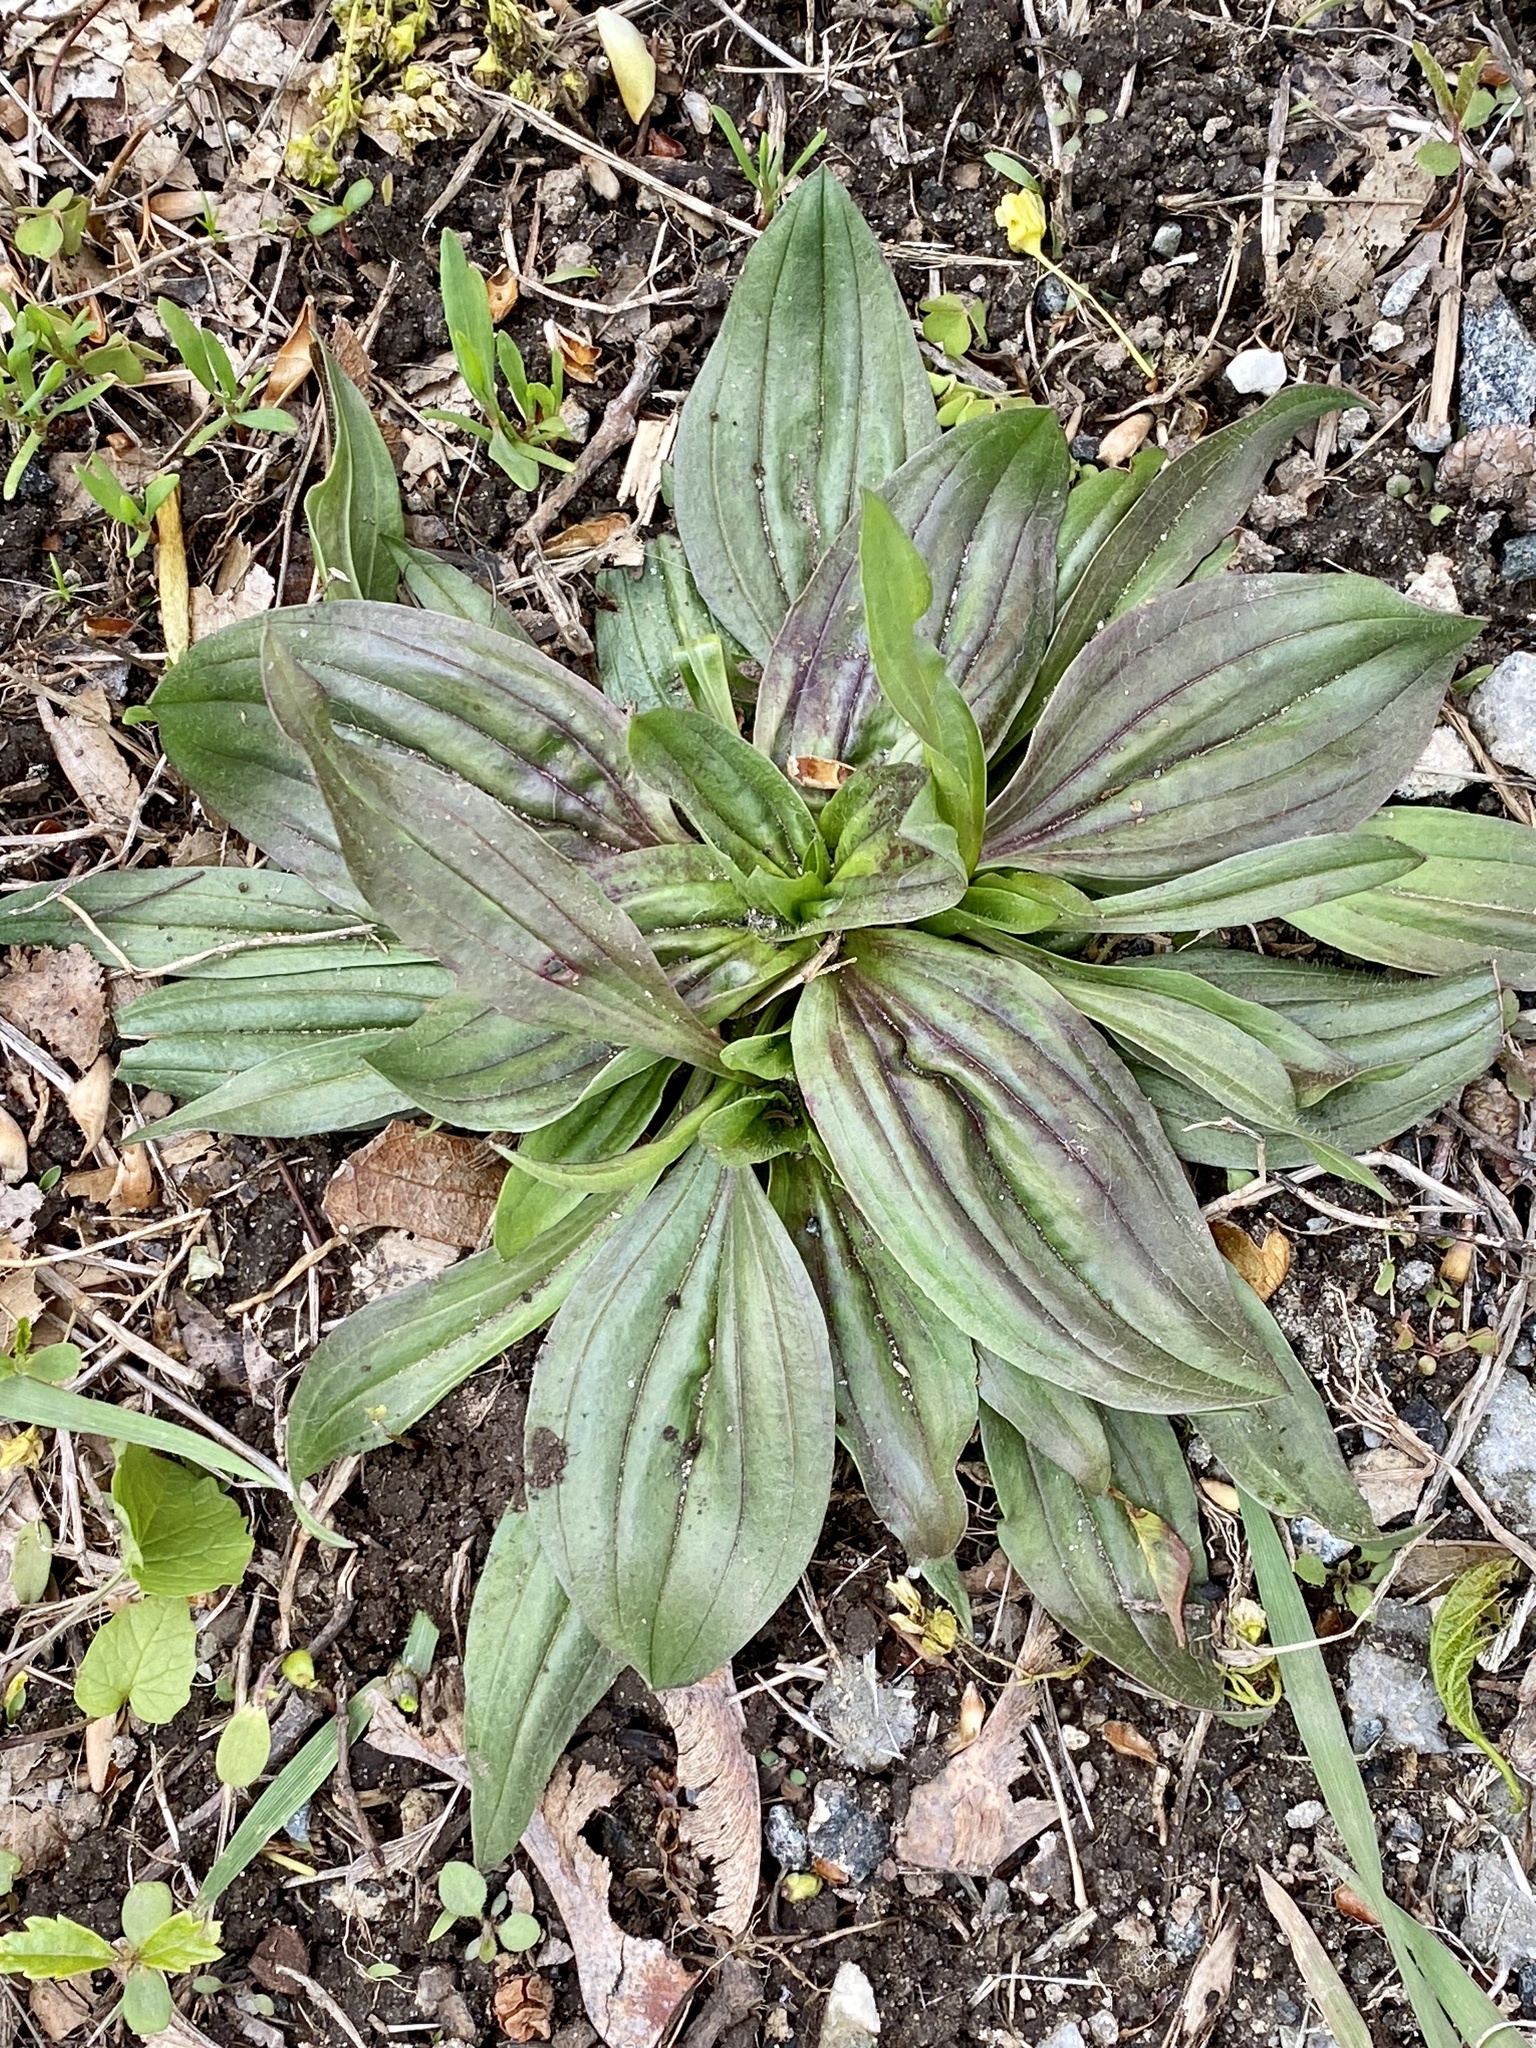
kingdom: Plantae
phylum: Tracheophyta
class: Magnoliopsida
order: Lamiales
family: Plantaginaceae
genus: Plantago
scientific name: Plantago lanceolata
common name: Ribwort plantain
